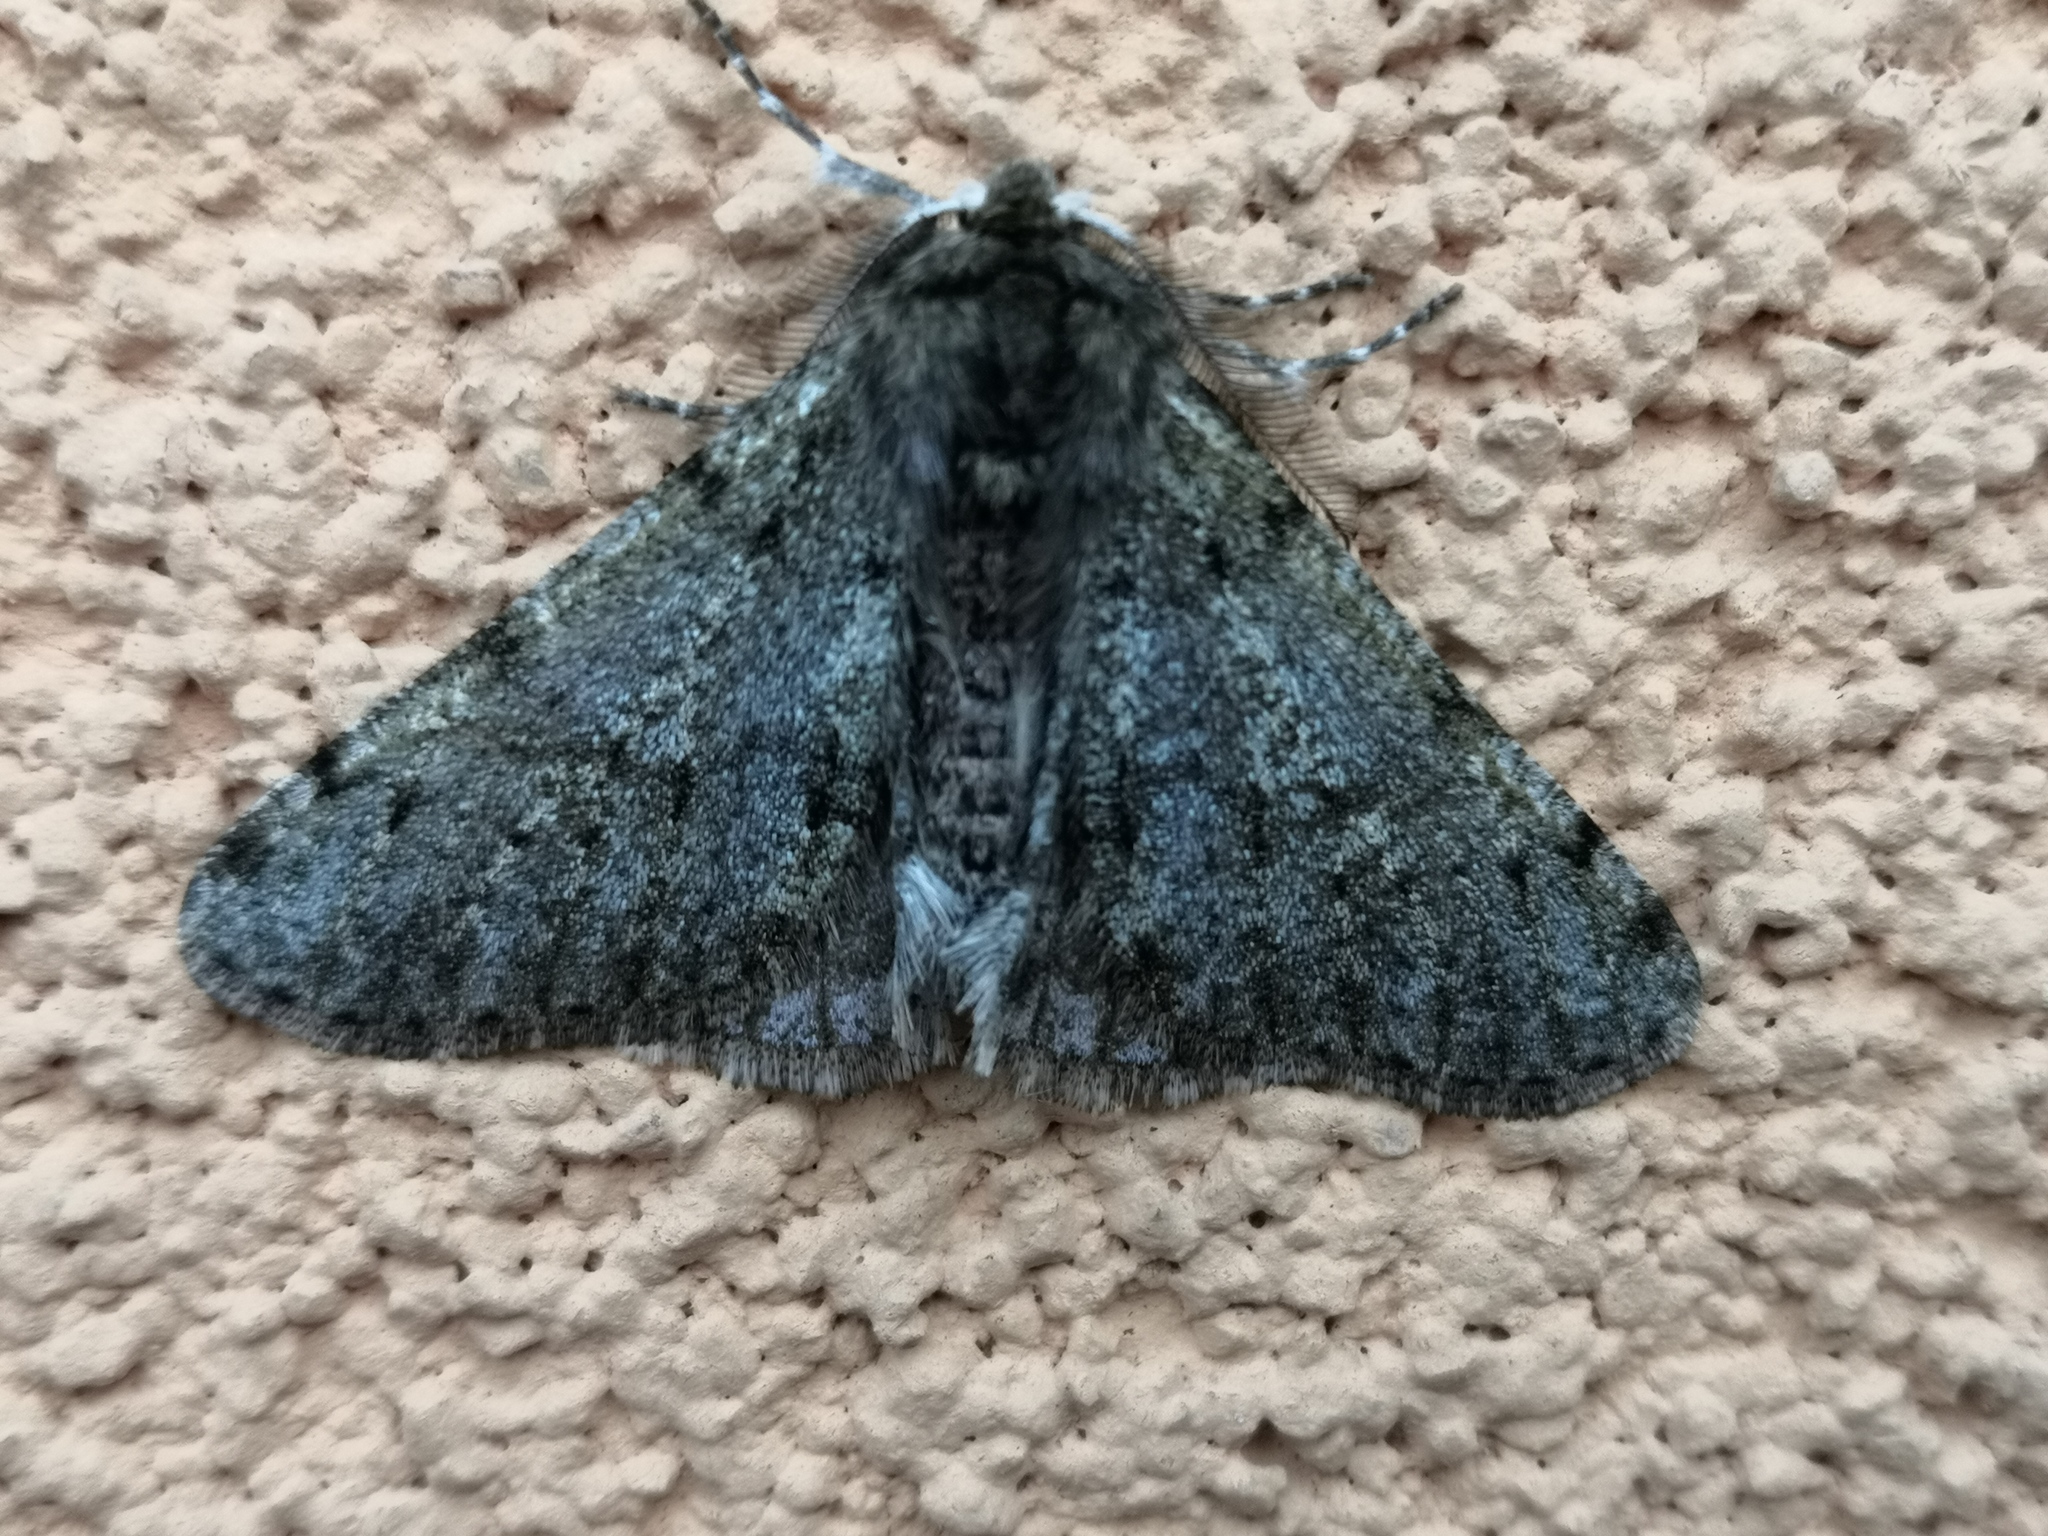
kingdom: Animalia
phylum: Arthropoda
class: Insecta
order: Lepidoptera
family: Geometridae
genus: Phigalia
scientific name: Phigalia pilosaria
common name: Pale brindled beauty
